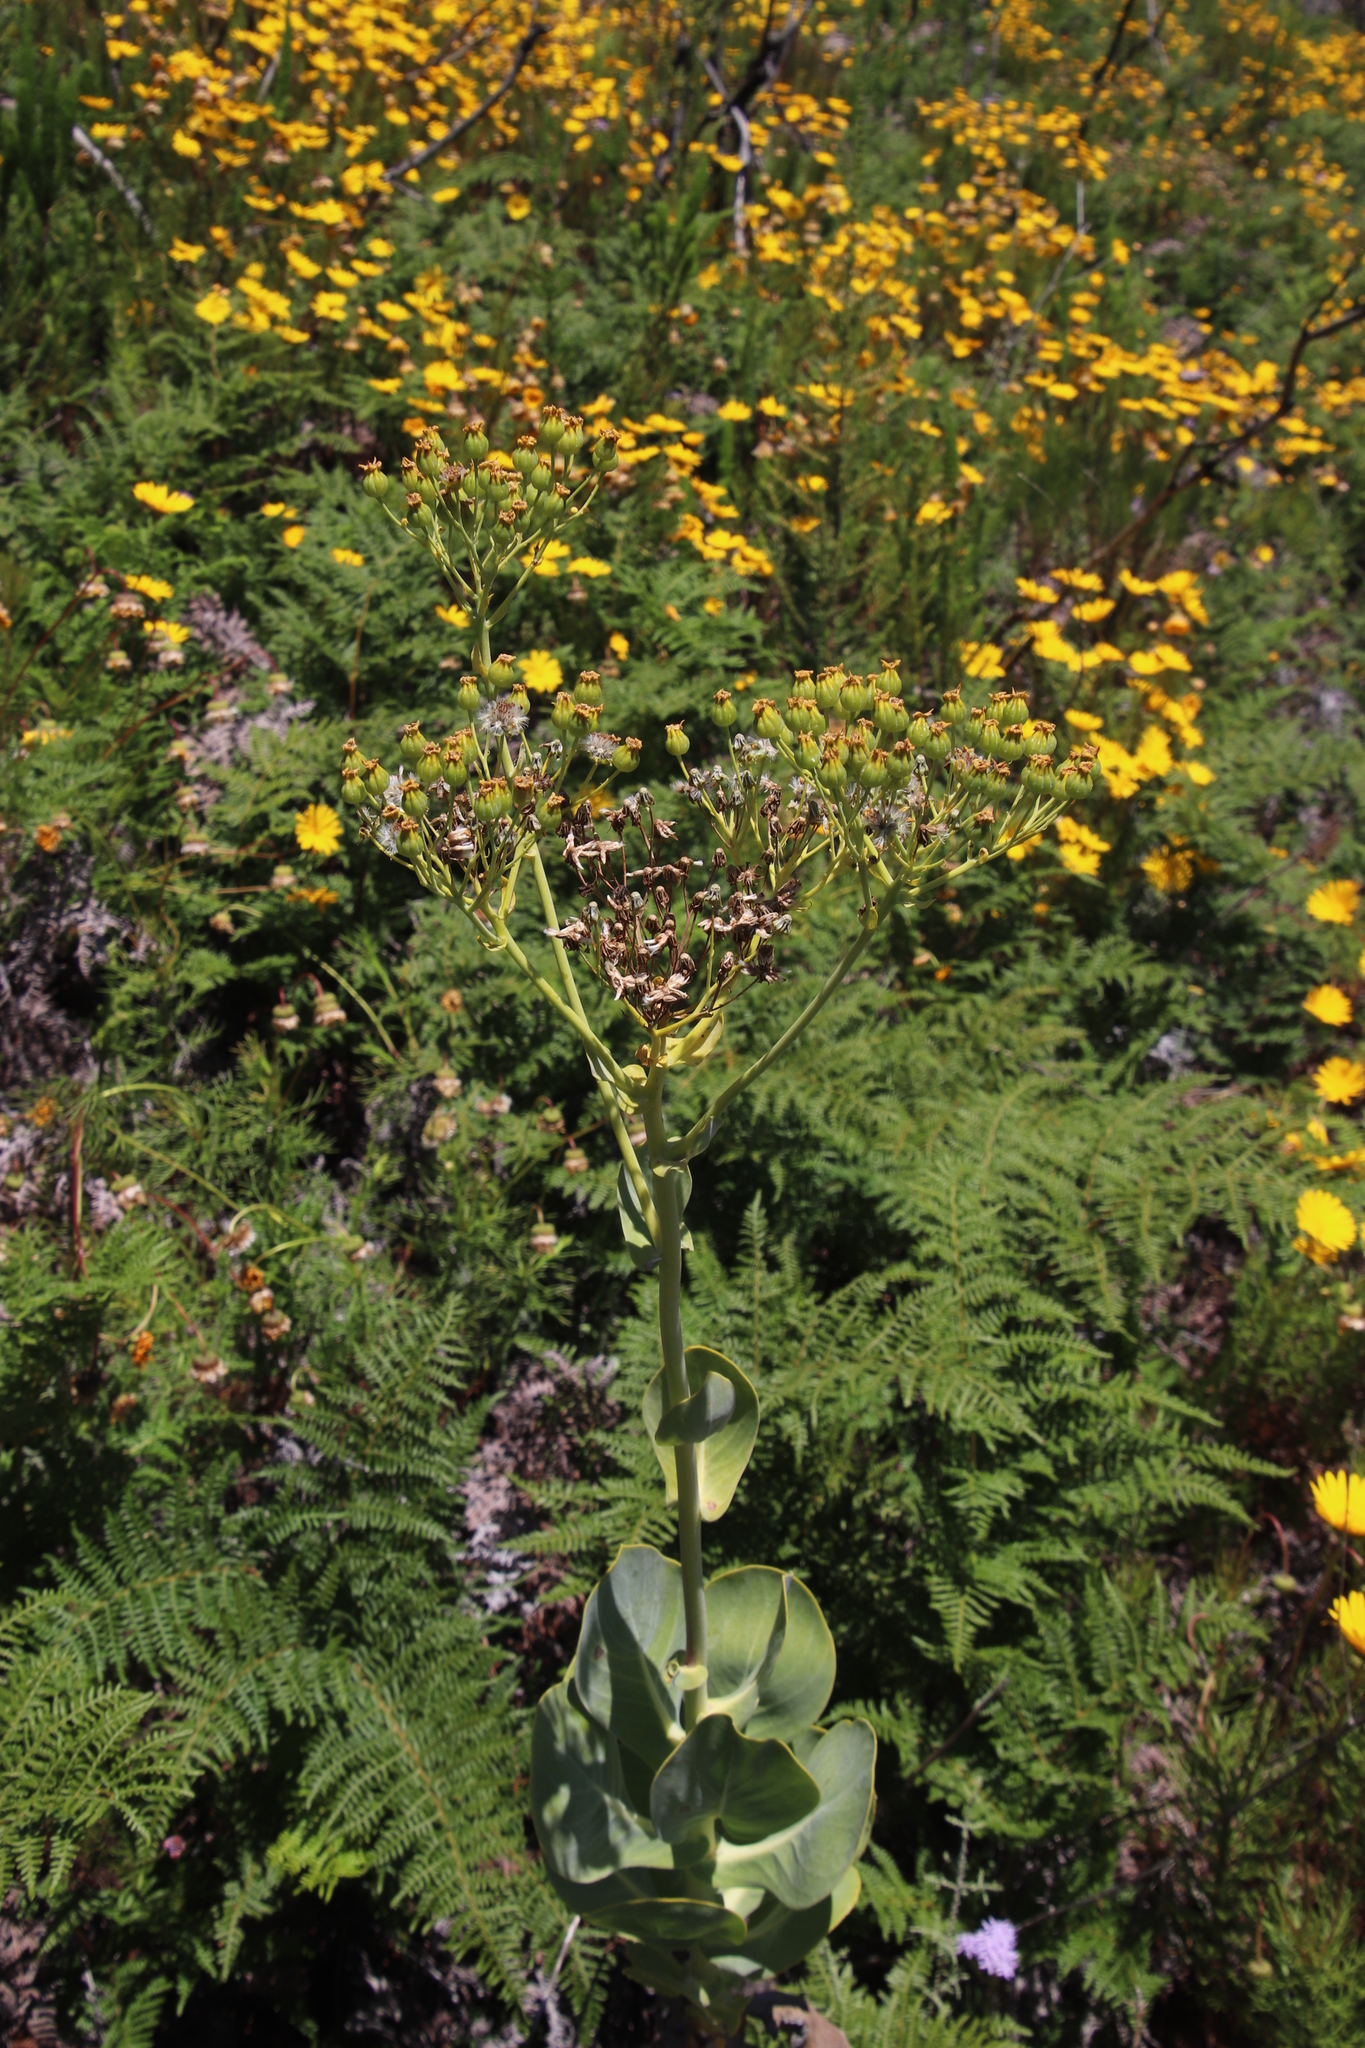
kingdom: Plantae
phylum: Tracheophyta
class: Magnoliopsida
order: Asterales
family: Asteraceae
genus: Othonna
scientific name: Othonna parviflora
